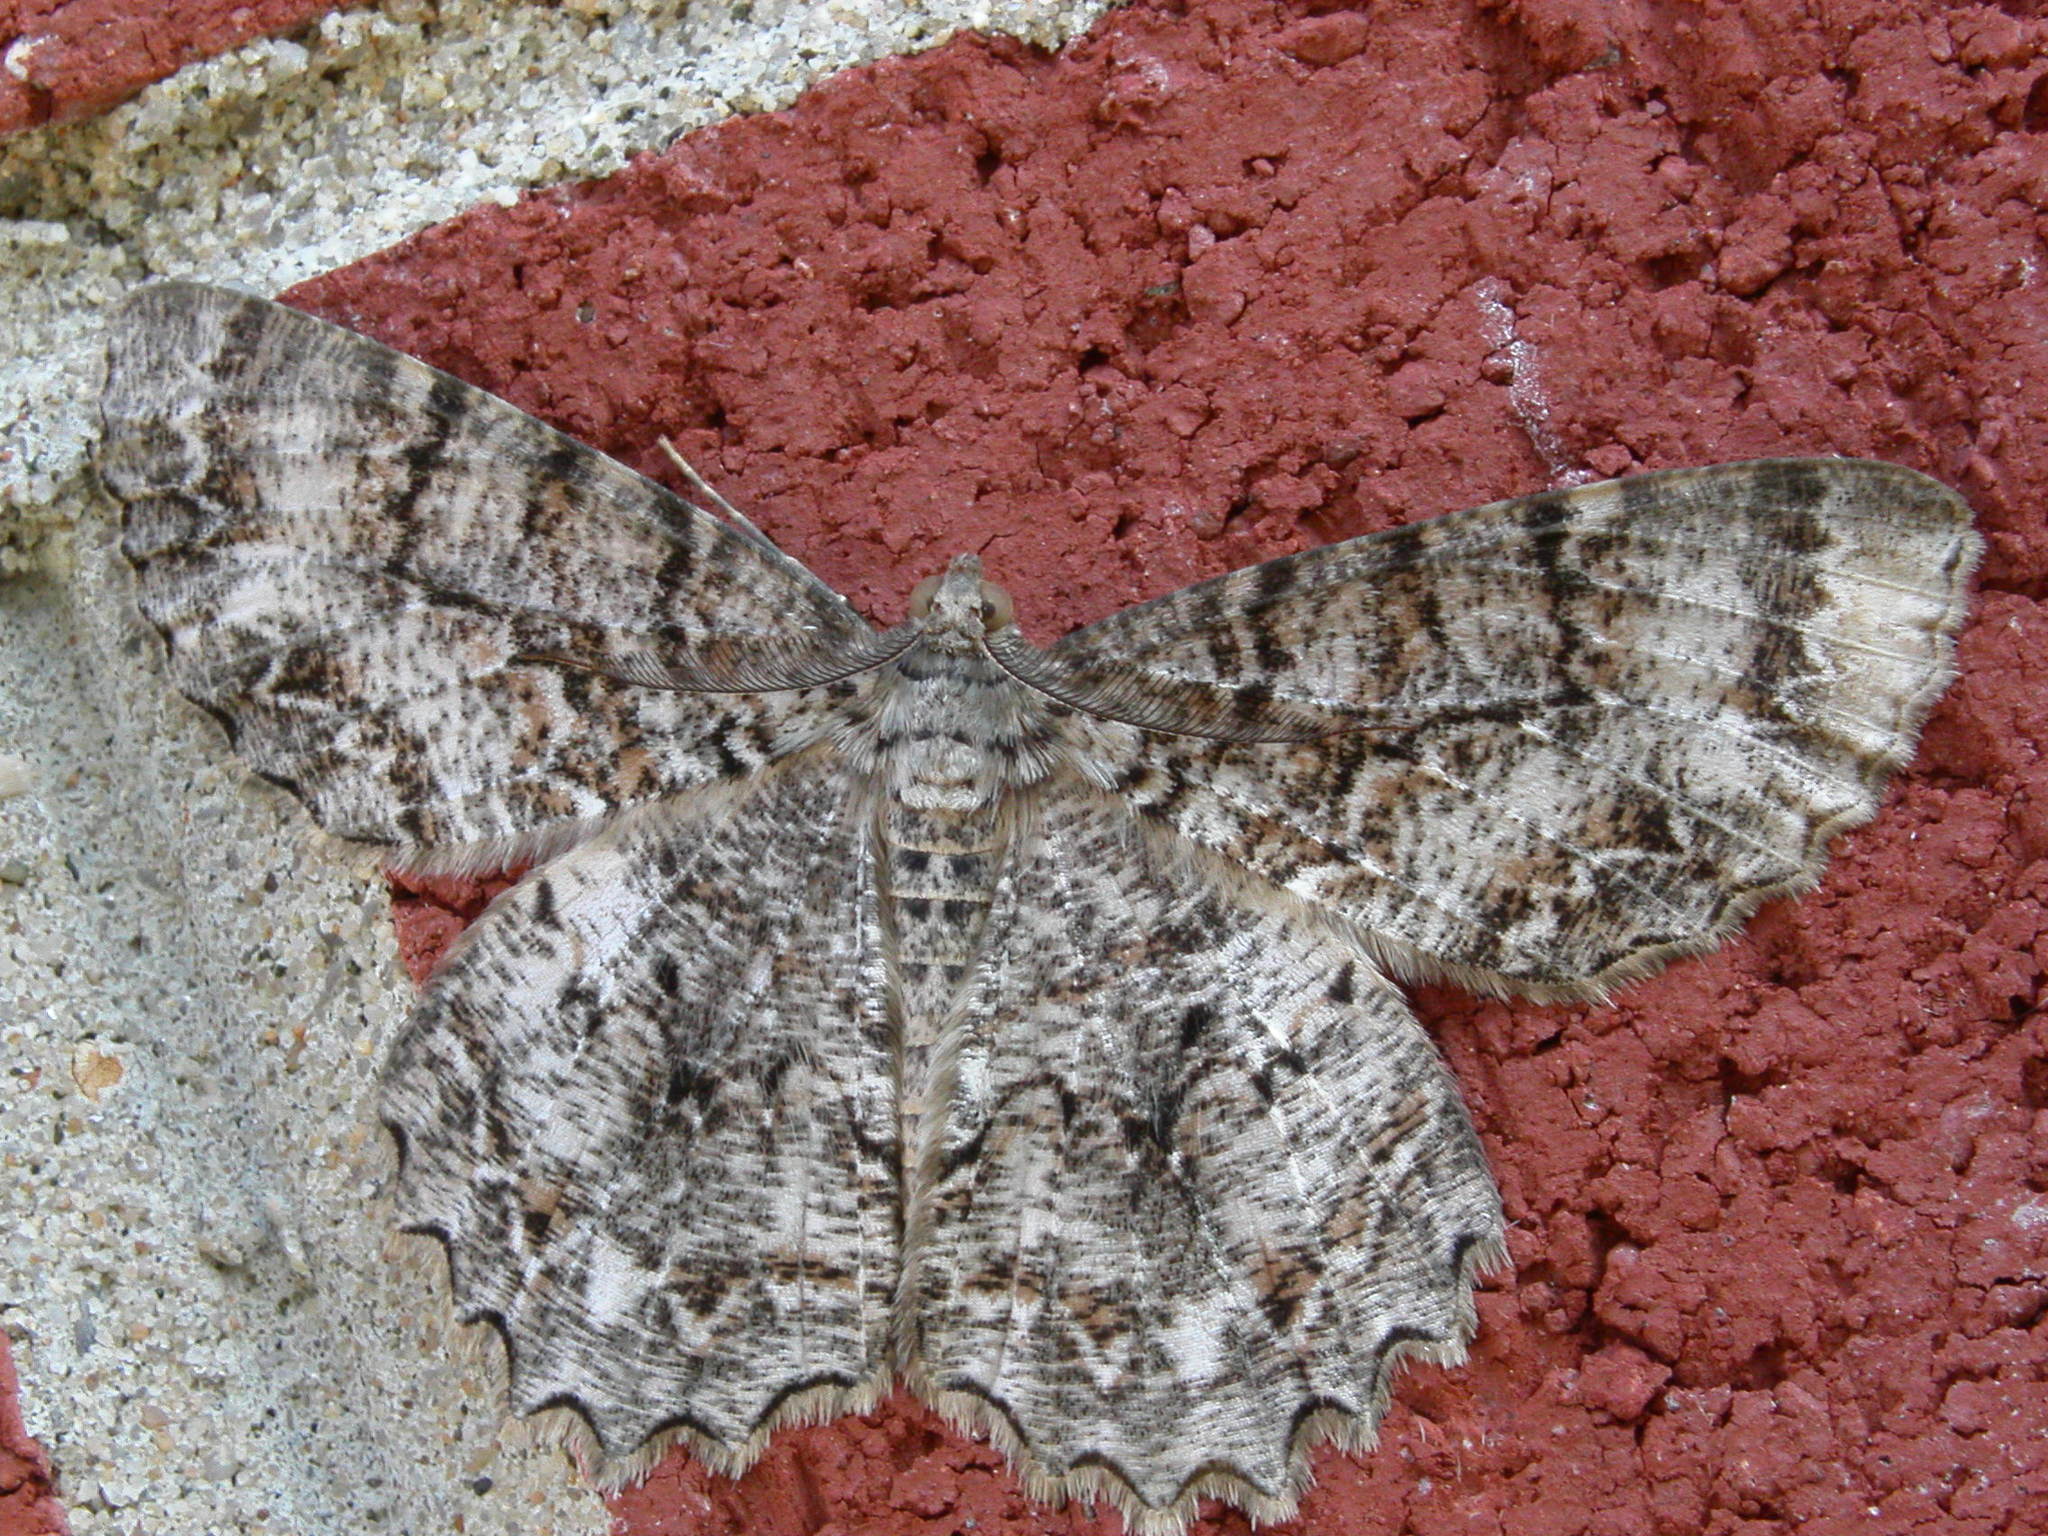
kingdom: Animalia
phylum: Arthropoda
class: Insecta
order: Lepidoptera
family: Geometridae
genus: Epimecis
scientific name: Epimecis hortaria
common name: Tulip-tree beauty
